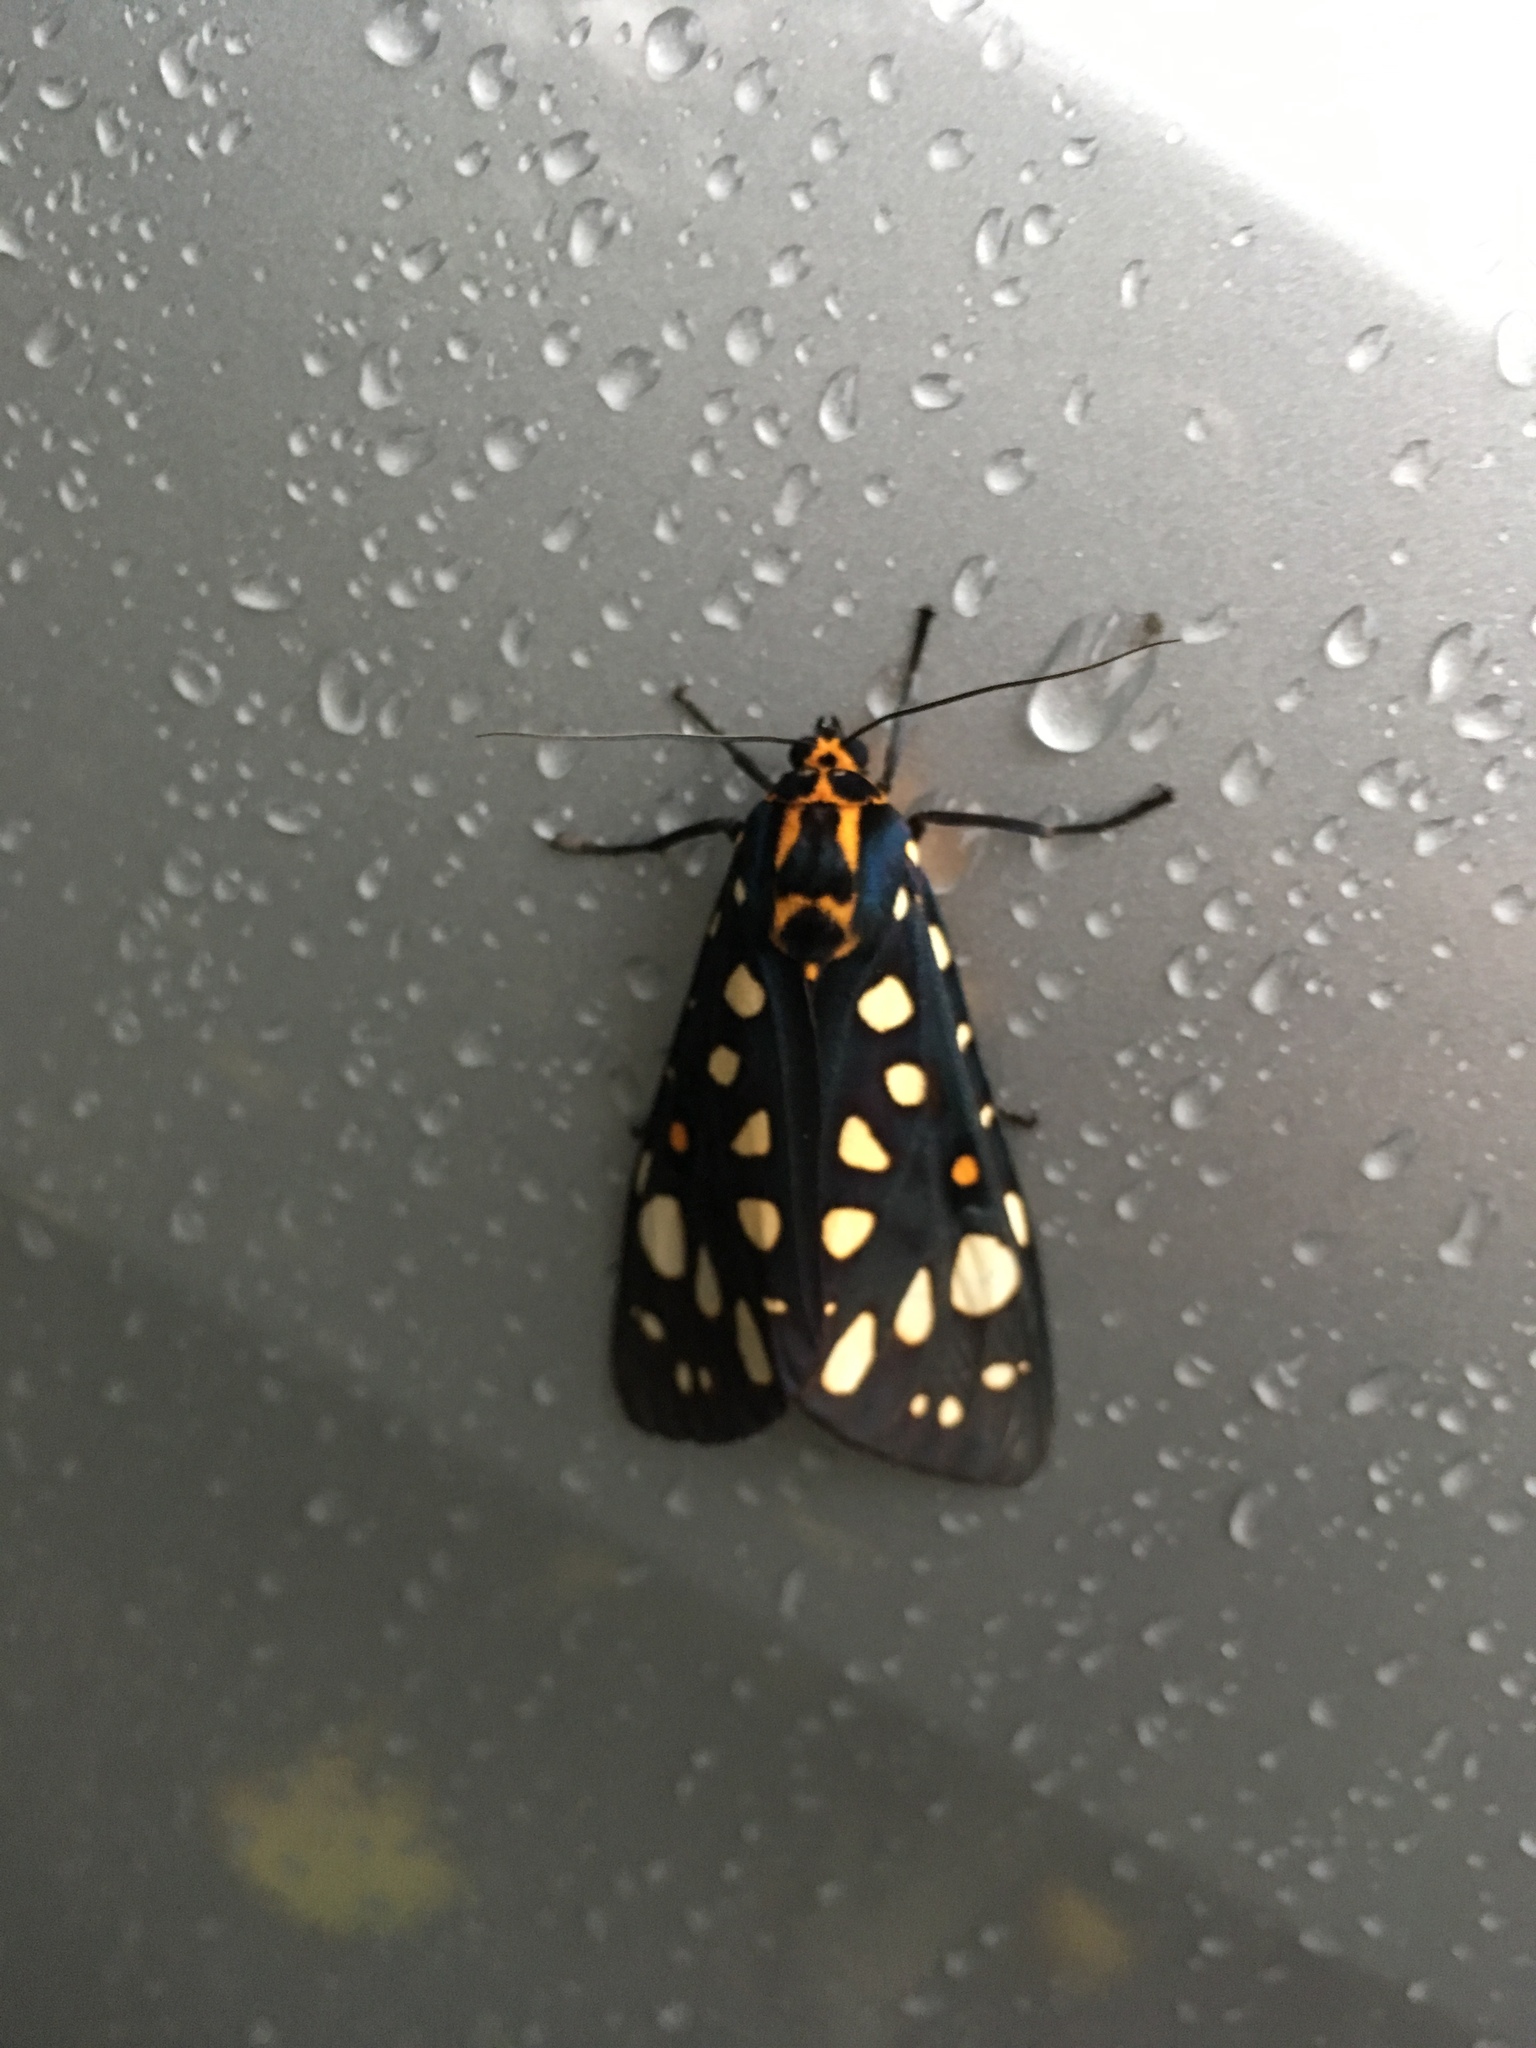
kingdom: Animalia
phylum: Arthropoda
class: Insecta
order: Lepidoptera
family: Erebidae
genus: Aglaomorpha
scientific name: Aglaomorpha histrio
